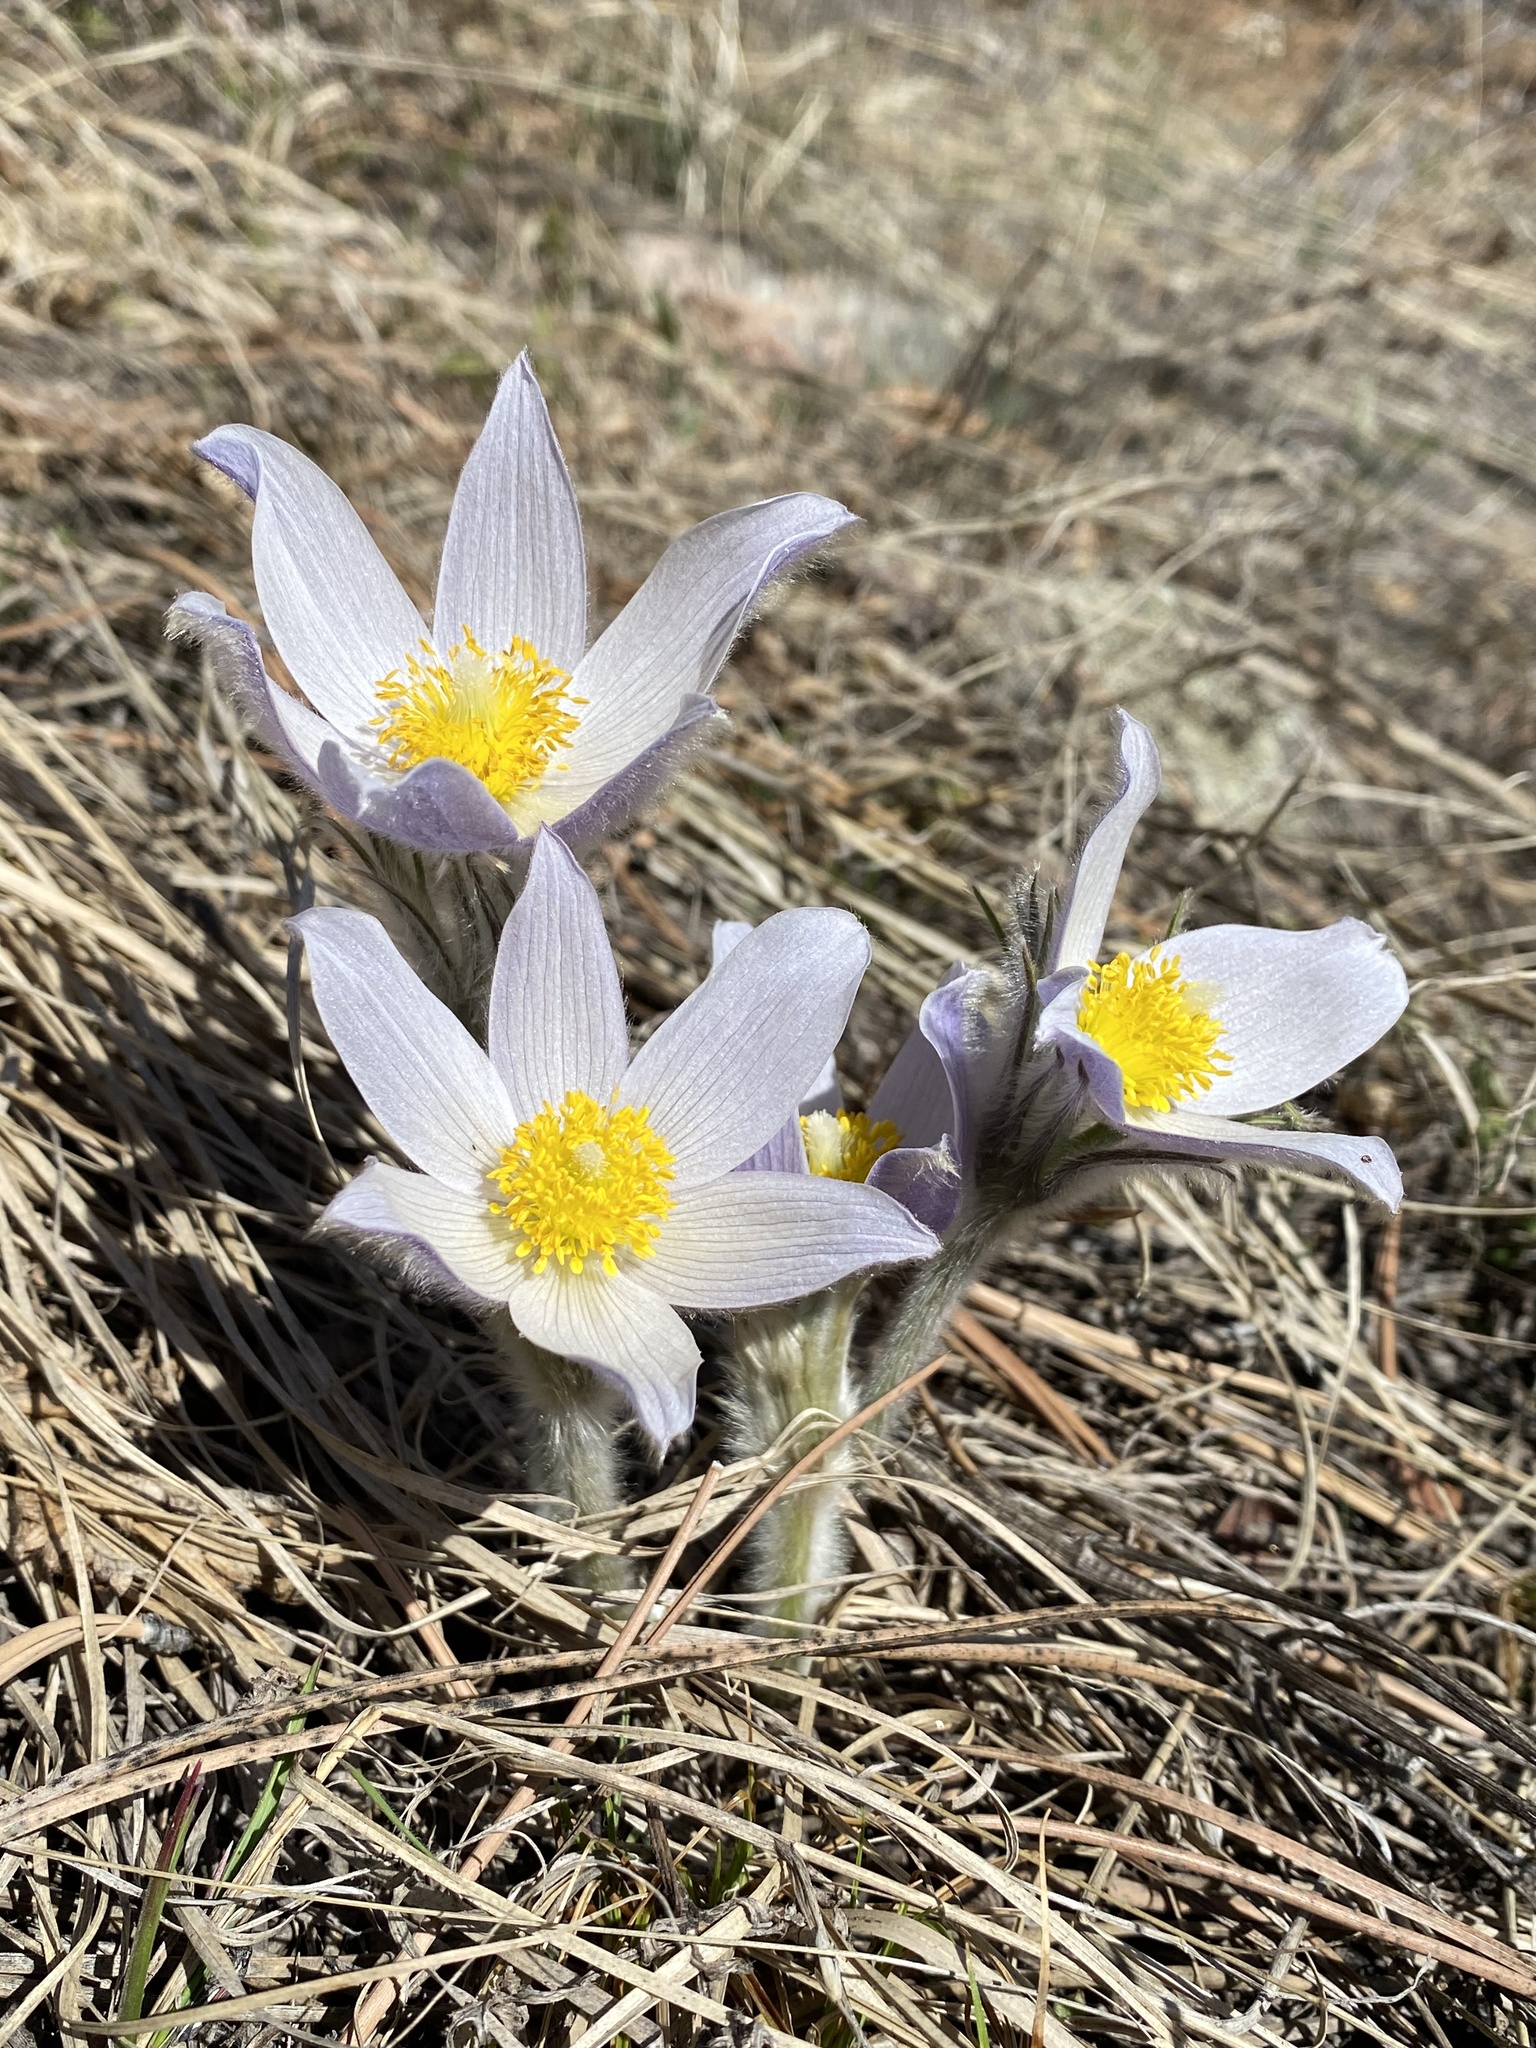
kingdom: Plantae
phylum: Tracheophyta
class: Magnoliopsida
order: Ranunculales
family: Ranunculaceae
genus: Pulsatilla
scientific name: Pulsatilla nuttalliana
